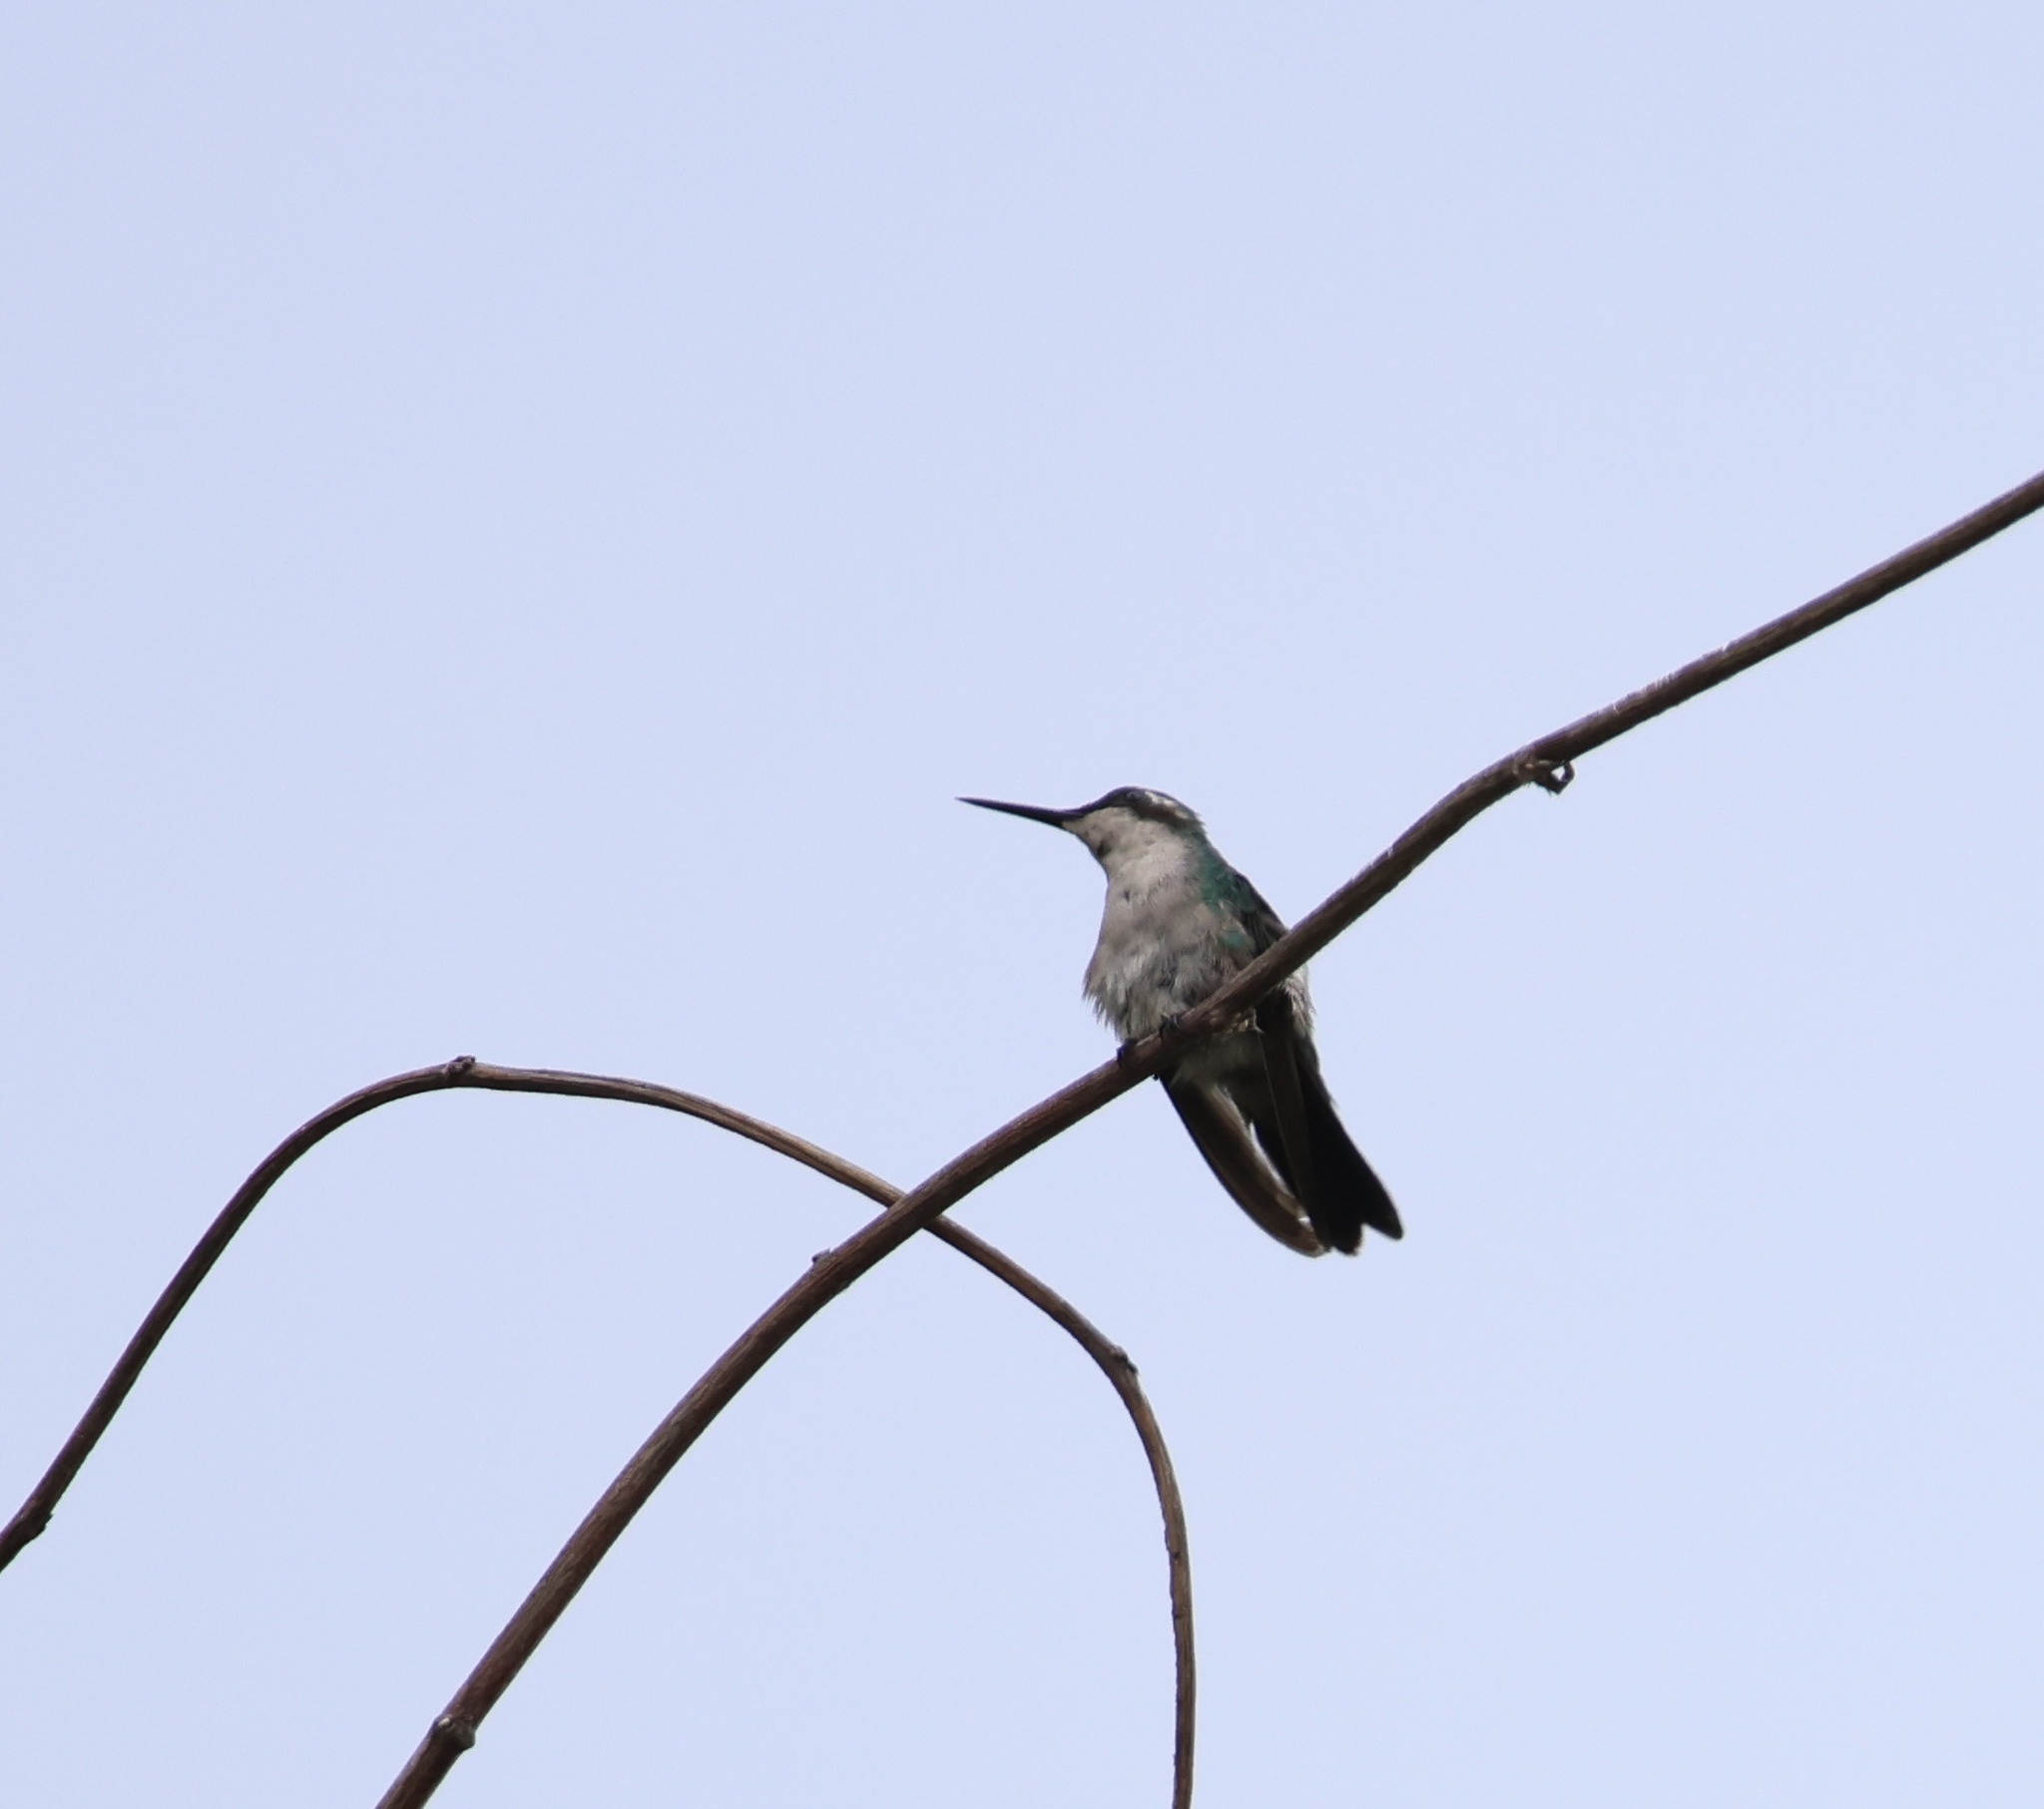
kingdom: Animalia
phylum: Chordata
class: Aves
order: Apodiformes
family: Trochilidae
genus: Chlorostilbon
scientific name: Chlorostilbon assimilis
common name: Garden emerald
